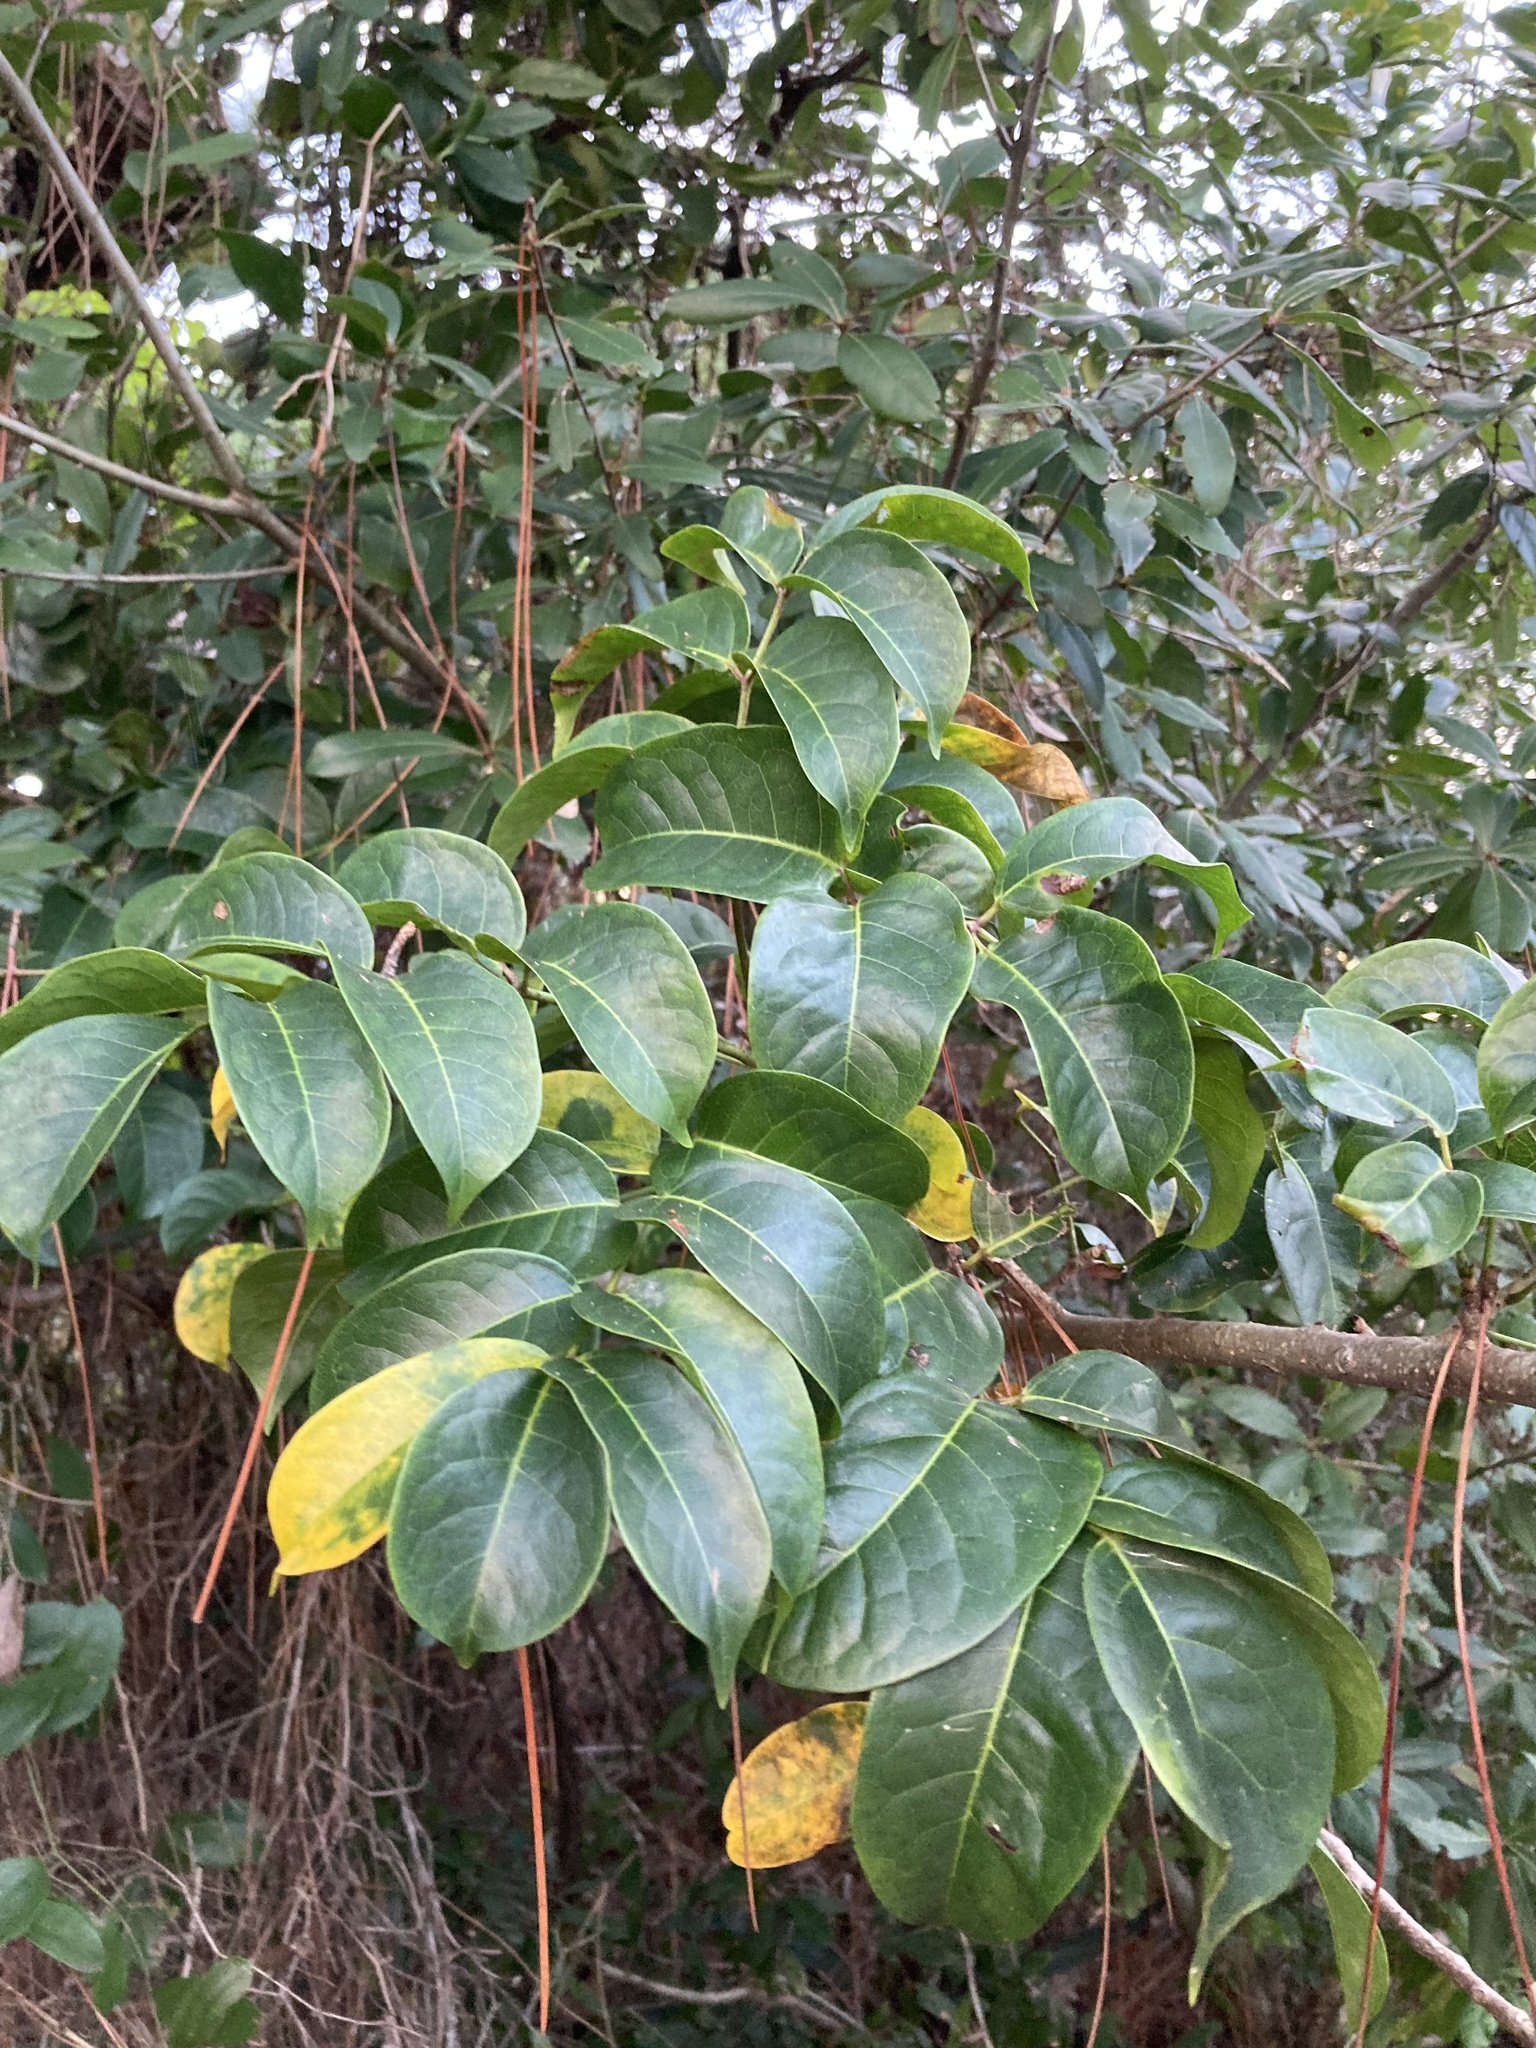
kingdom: Plantae
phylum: Tracheophyta
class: Magnoliopsida
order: Sapindales
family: Burseraceae
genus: Bursera
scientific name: Bursera simaruba
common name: Turpentine tree
